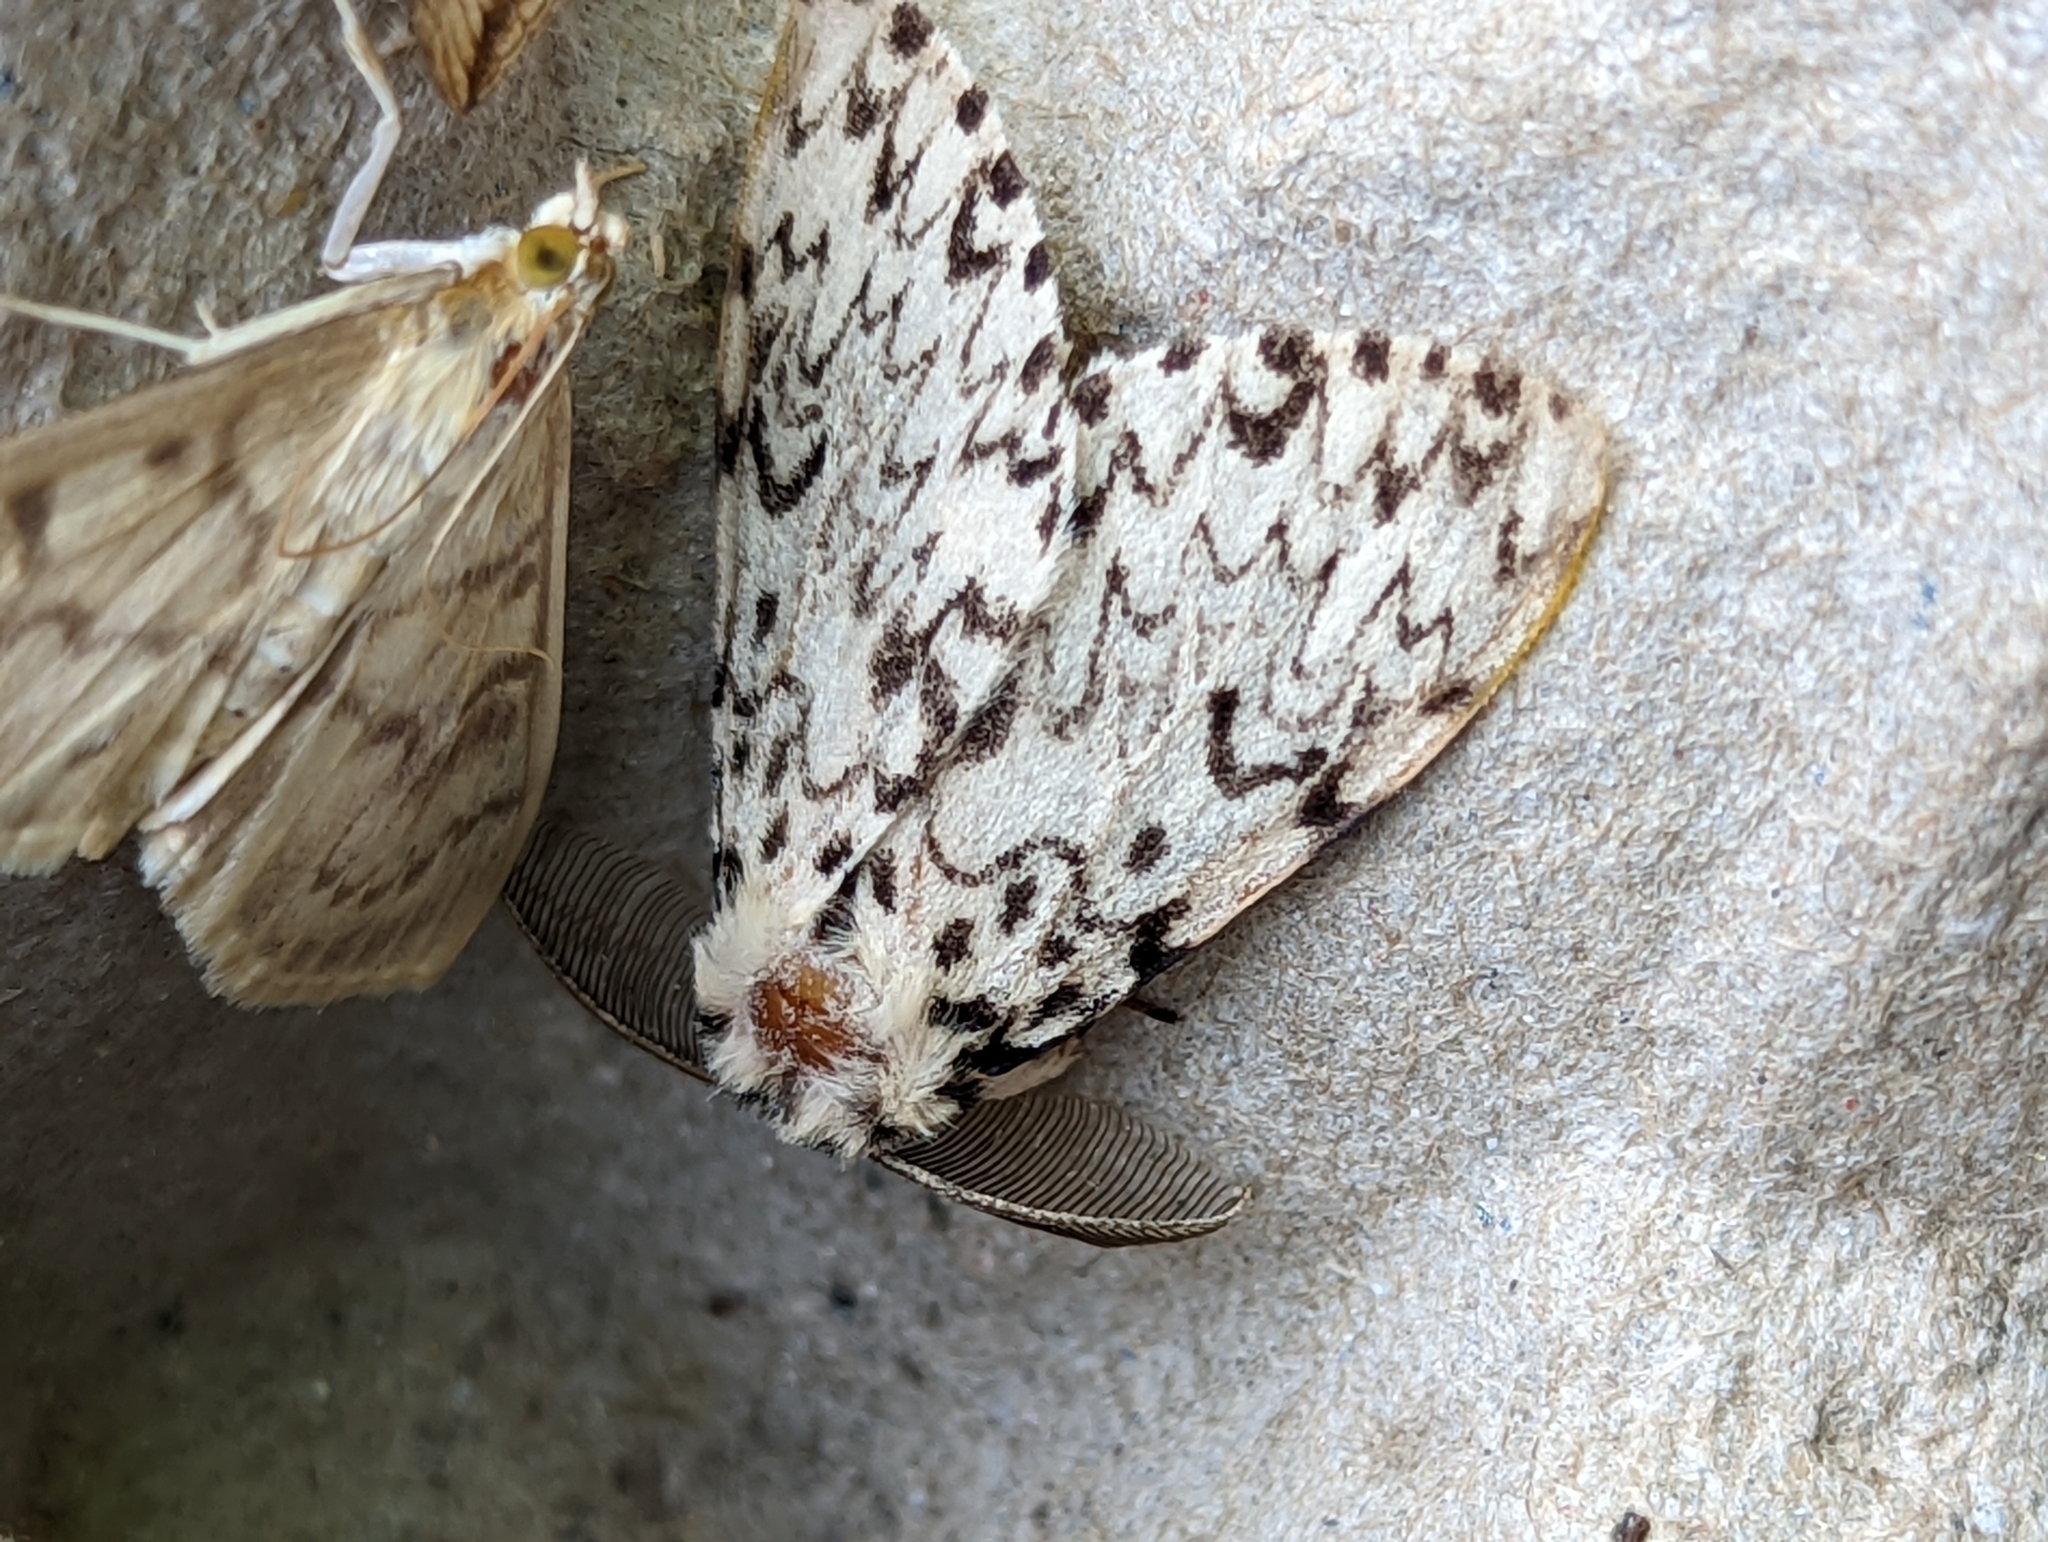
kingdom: Animalia
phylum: Arthropoda
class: Insecta
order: Lepidoptera
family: Erebidae
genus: Lymantria
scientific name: Lymantria monacha
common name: Black arches
